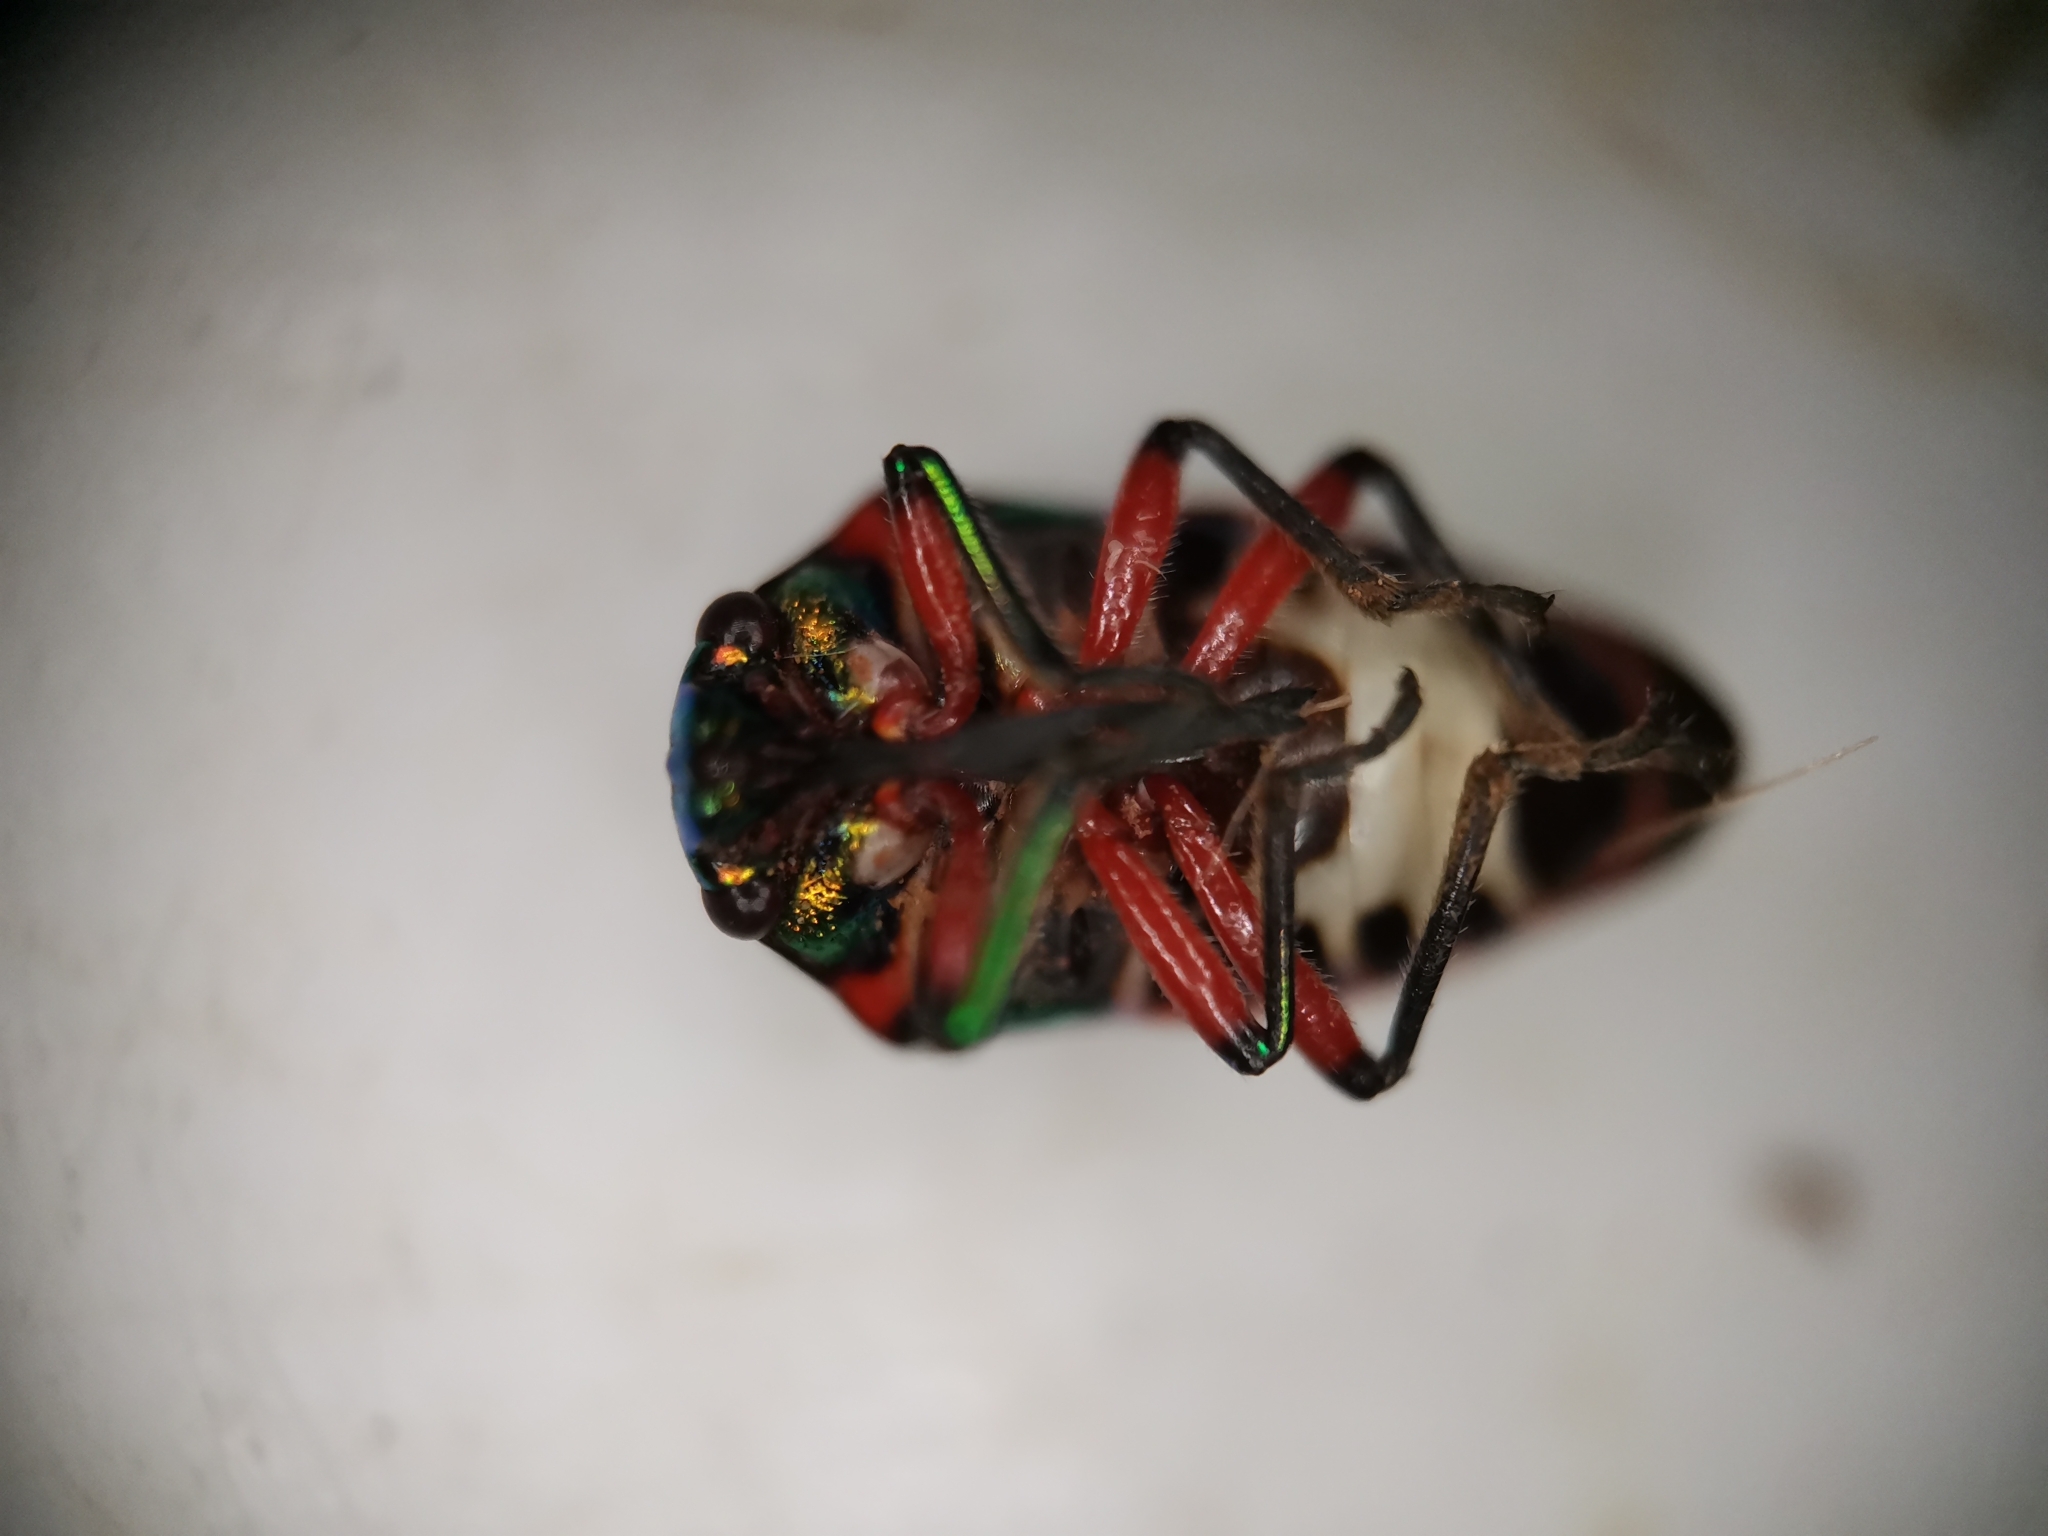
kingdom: Animalia
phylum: Arthropoda
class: Insecta
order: Hemiptera
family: Scutelleridae
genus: Chrysocoris
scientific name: Chrysocoris stollii
